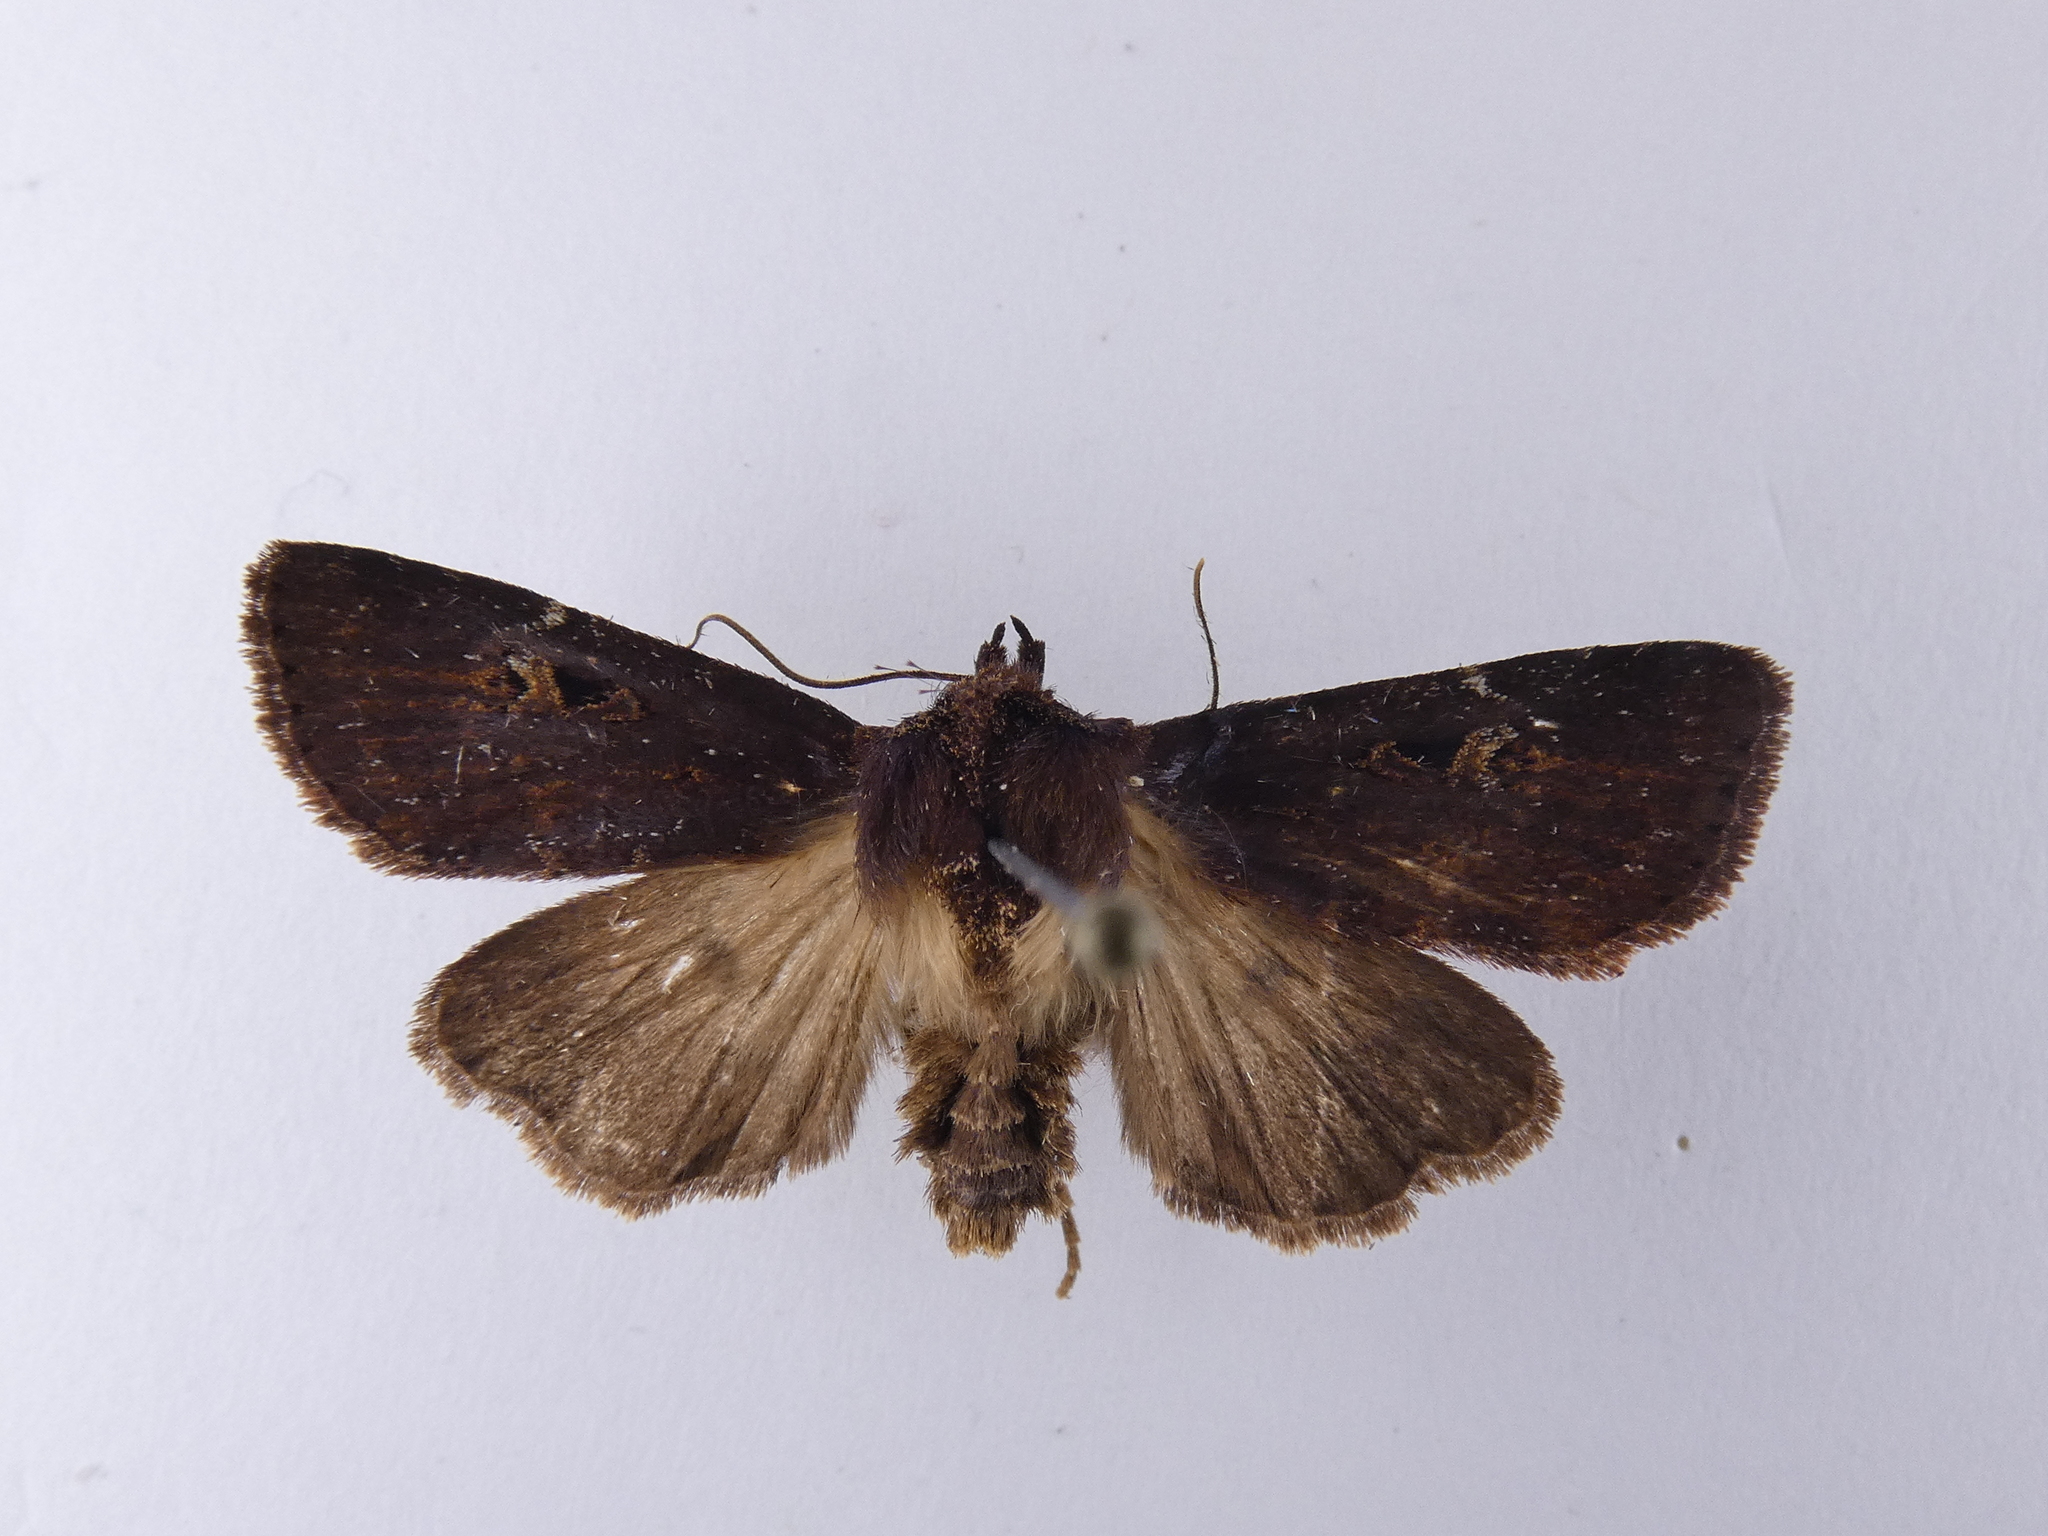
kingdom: Animalia
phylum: Arthropoda
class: Insecta
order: Lepidoptera
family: Noctuidae
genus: Austramathes
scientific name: Austramathes purpurea
